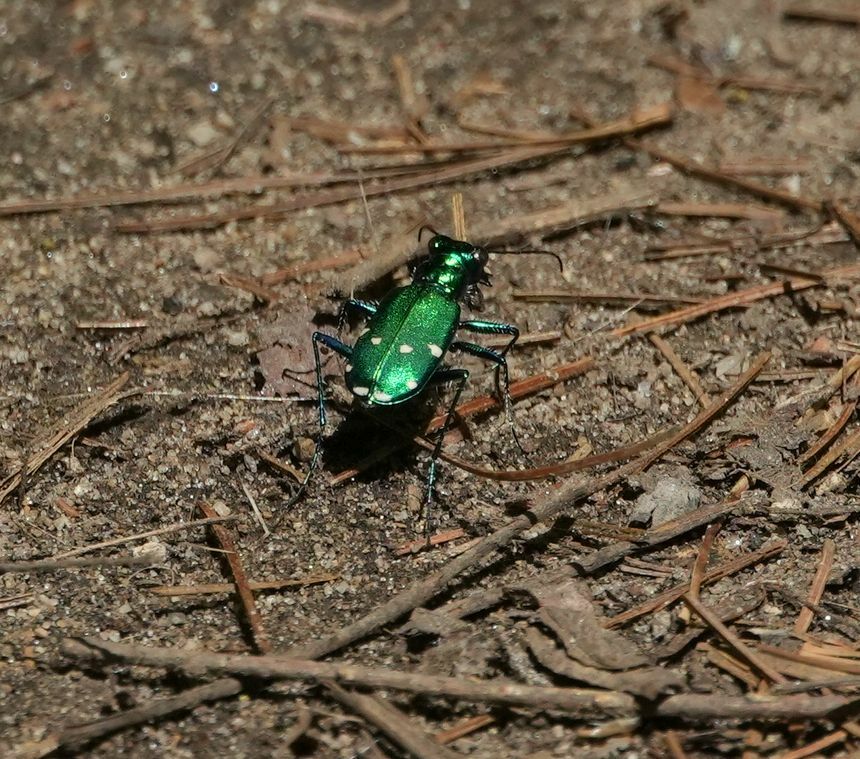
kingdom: Animalia
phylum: Arthropoda
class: Insecta
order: Coleoptera
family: Carabidae
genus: Cicindela
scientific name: Cicindela sexguttata
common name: Six-spotted tiger beetle
